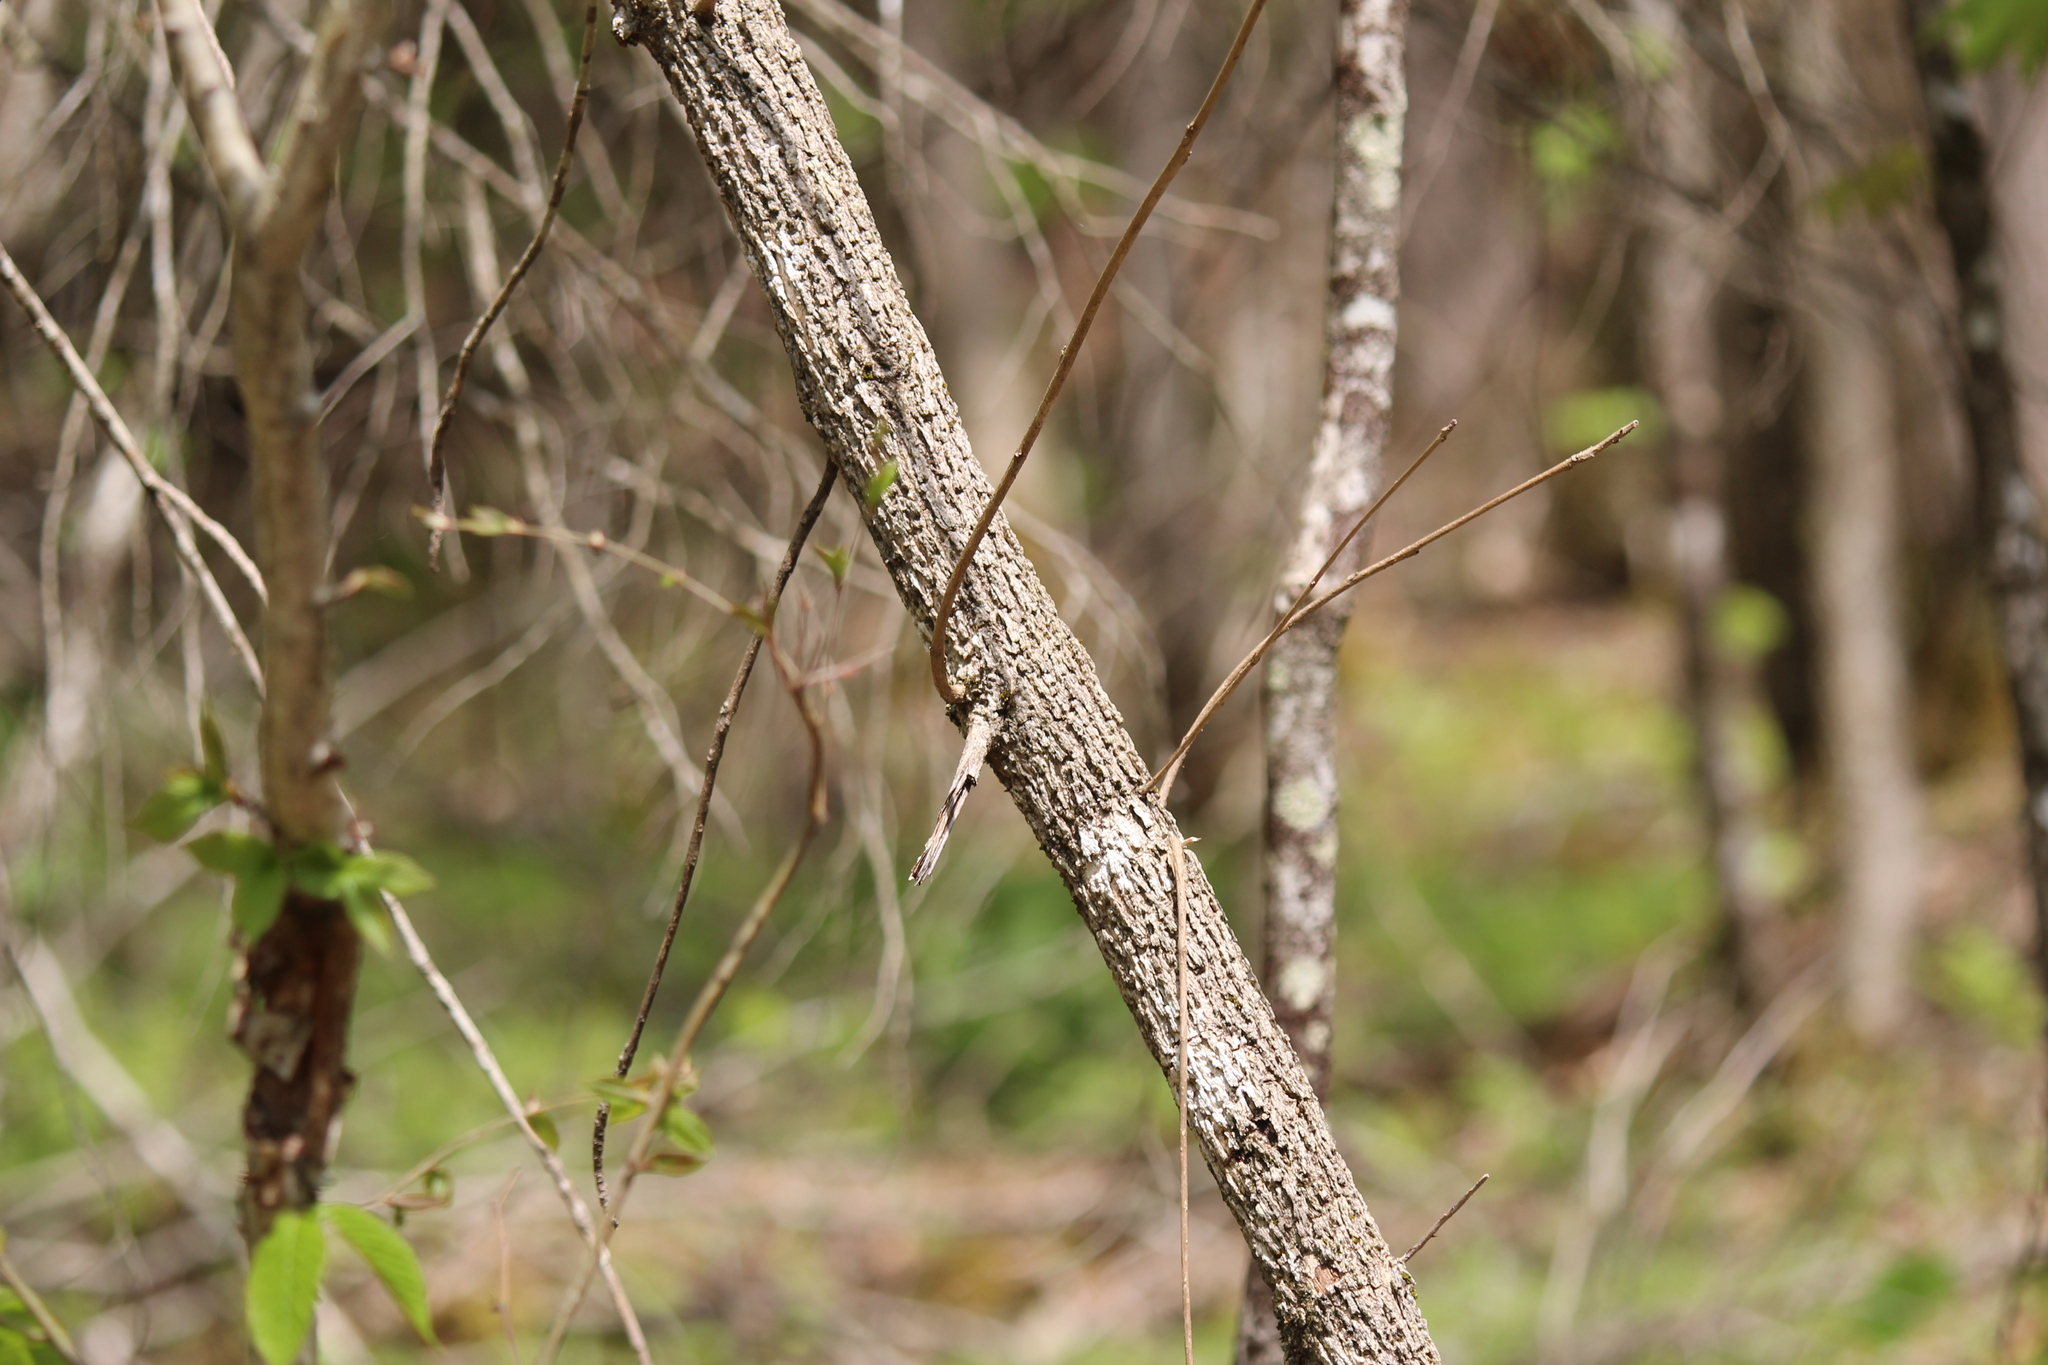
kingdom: Plantae
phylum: Tracheophyta
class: Magnoliopsida
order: Lamiales
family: Oleaceae
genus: Fraxinus
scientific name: Fraxinus nigra
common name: Black ash
